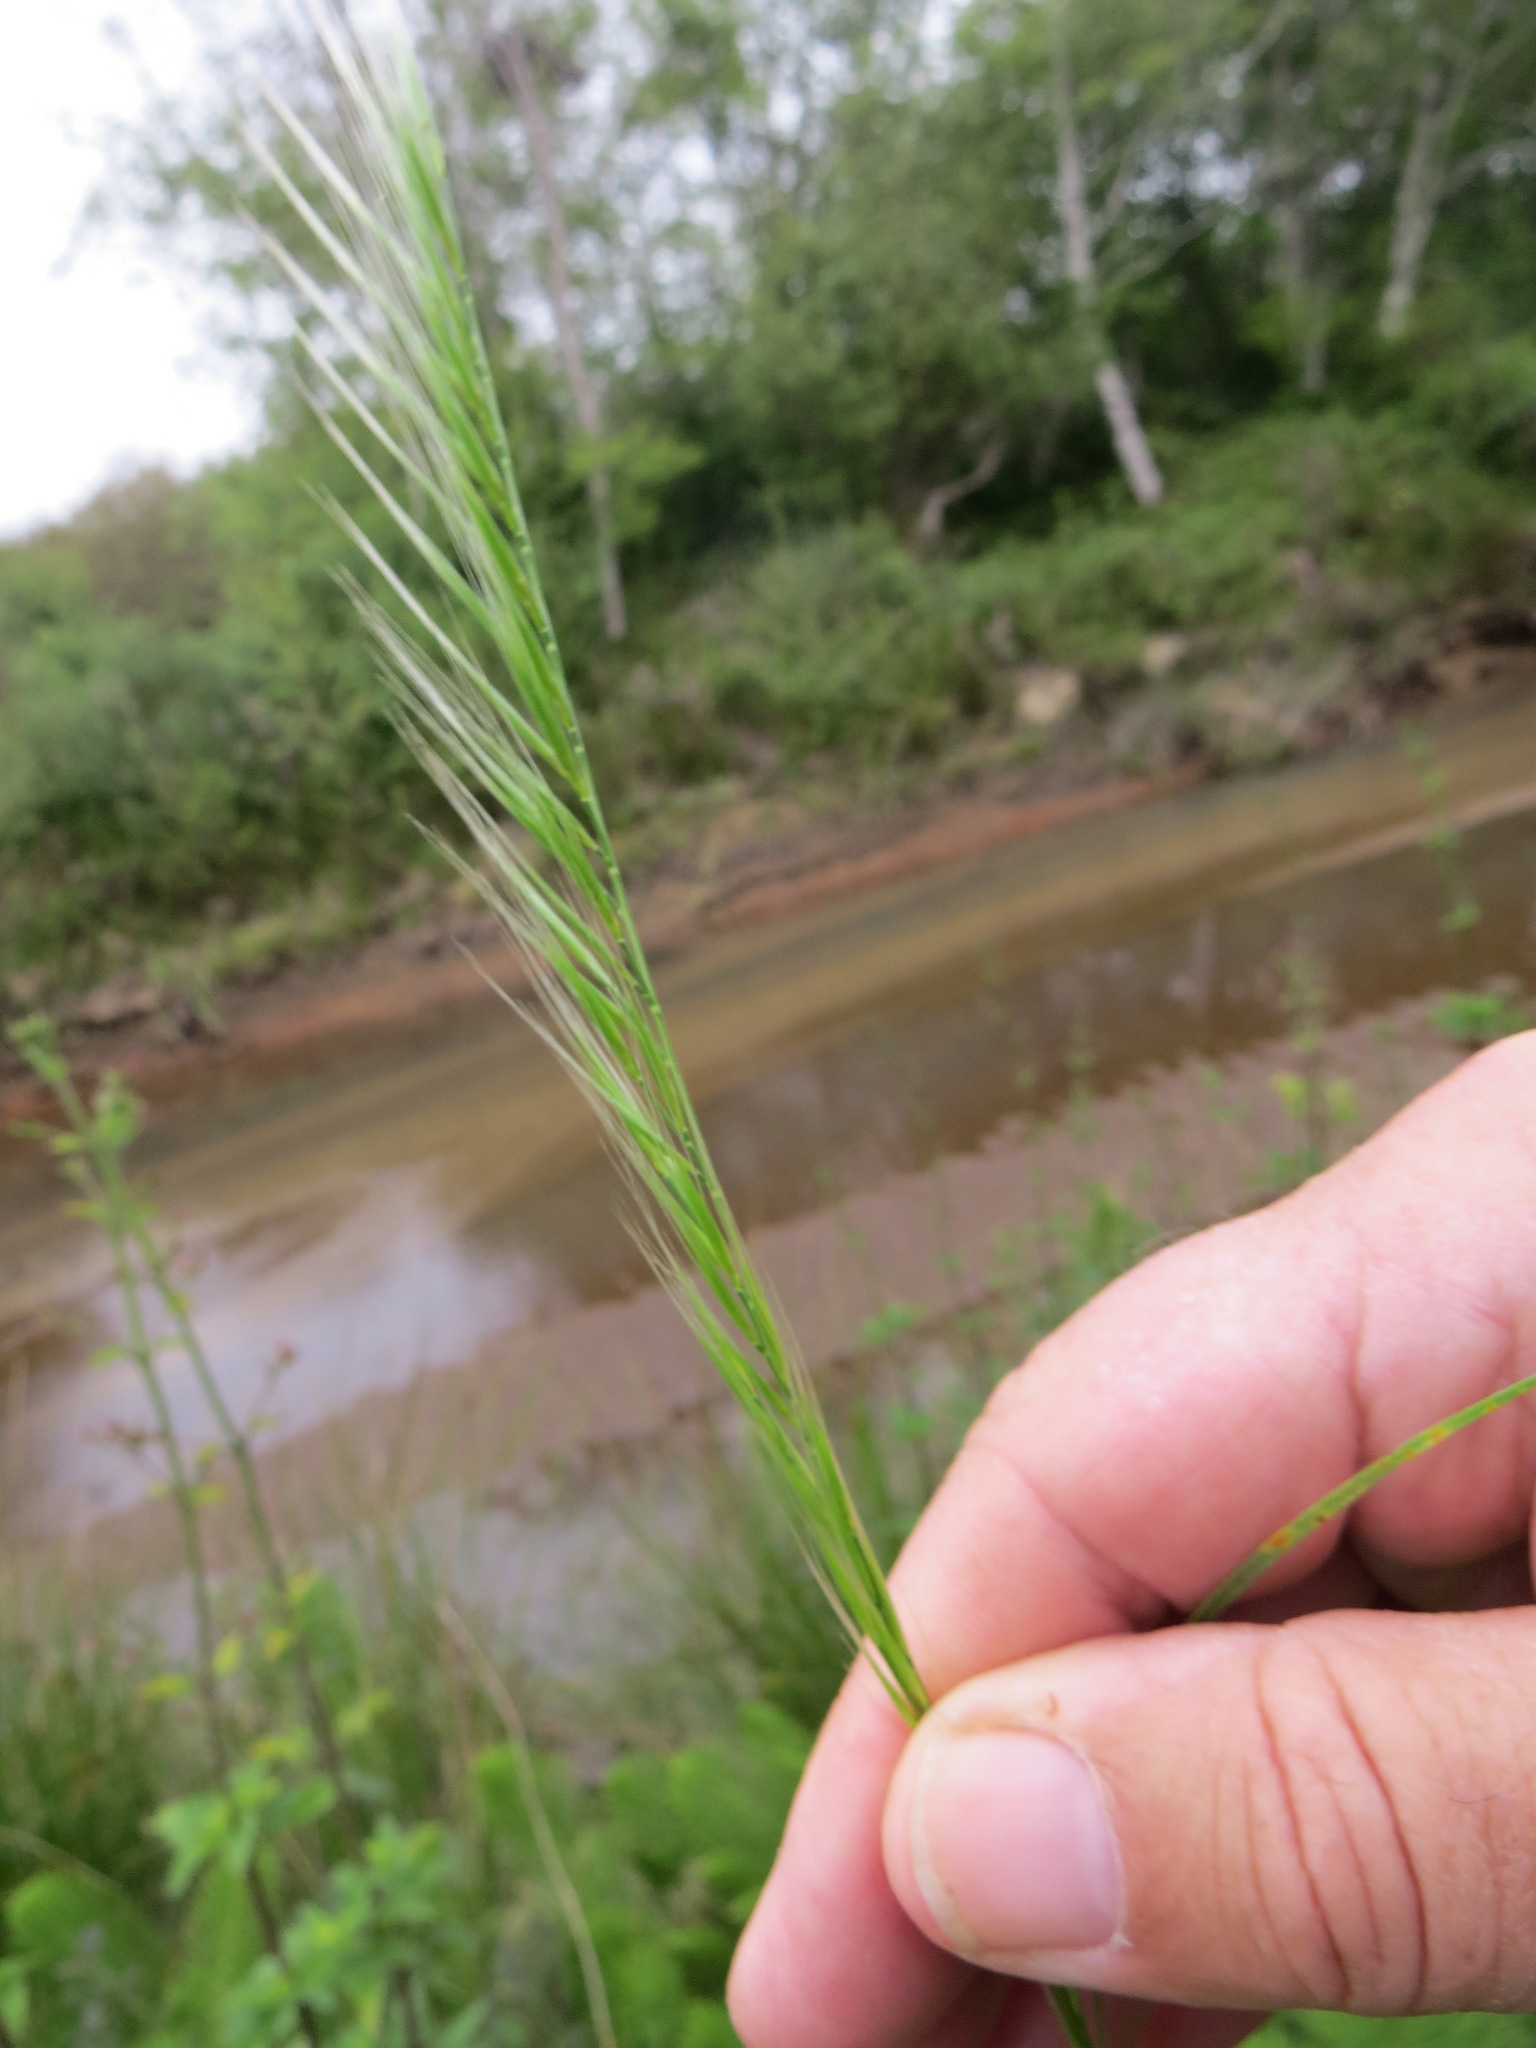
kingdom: Plantae
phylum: Tracheophyta
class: Liliopsida
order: Poales
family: Poaceae
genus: Festuca
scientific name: Festuca myuros
